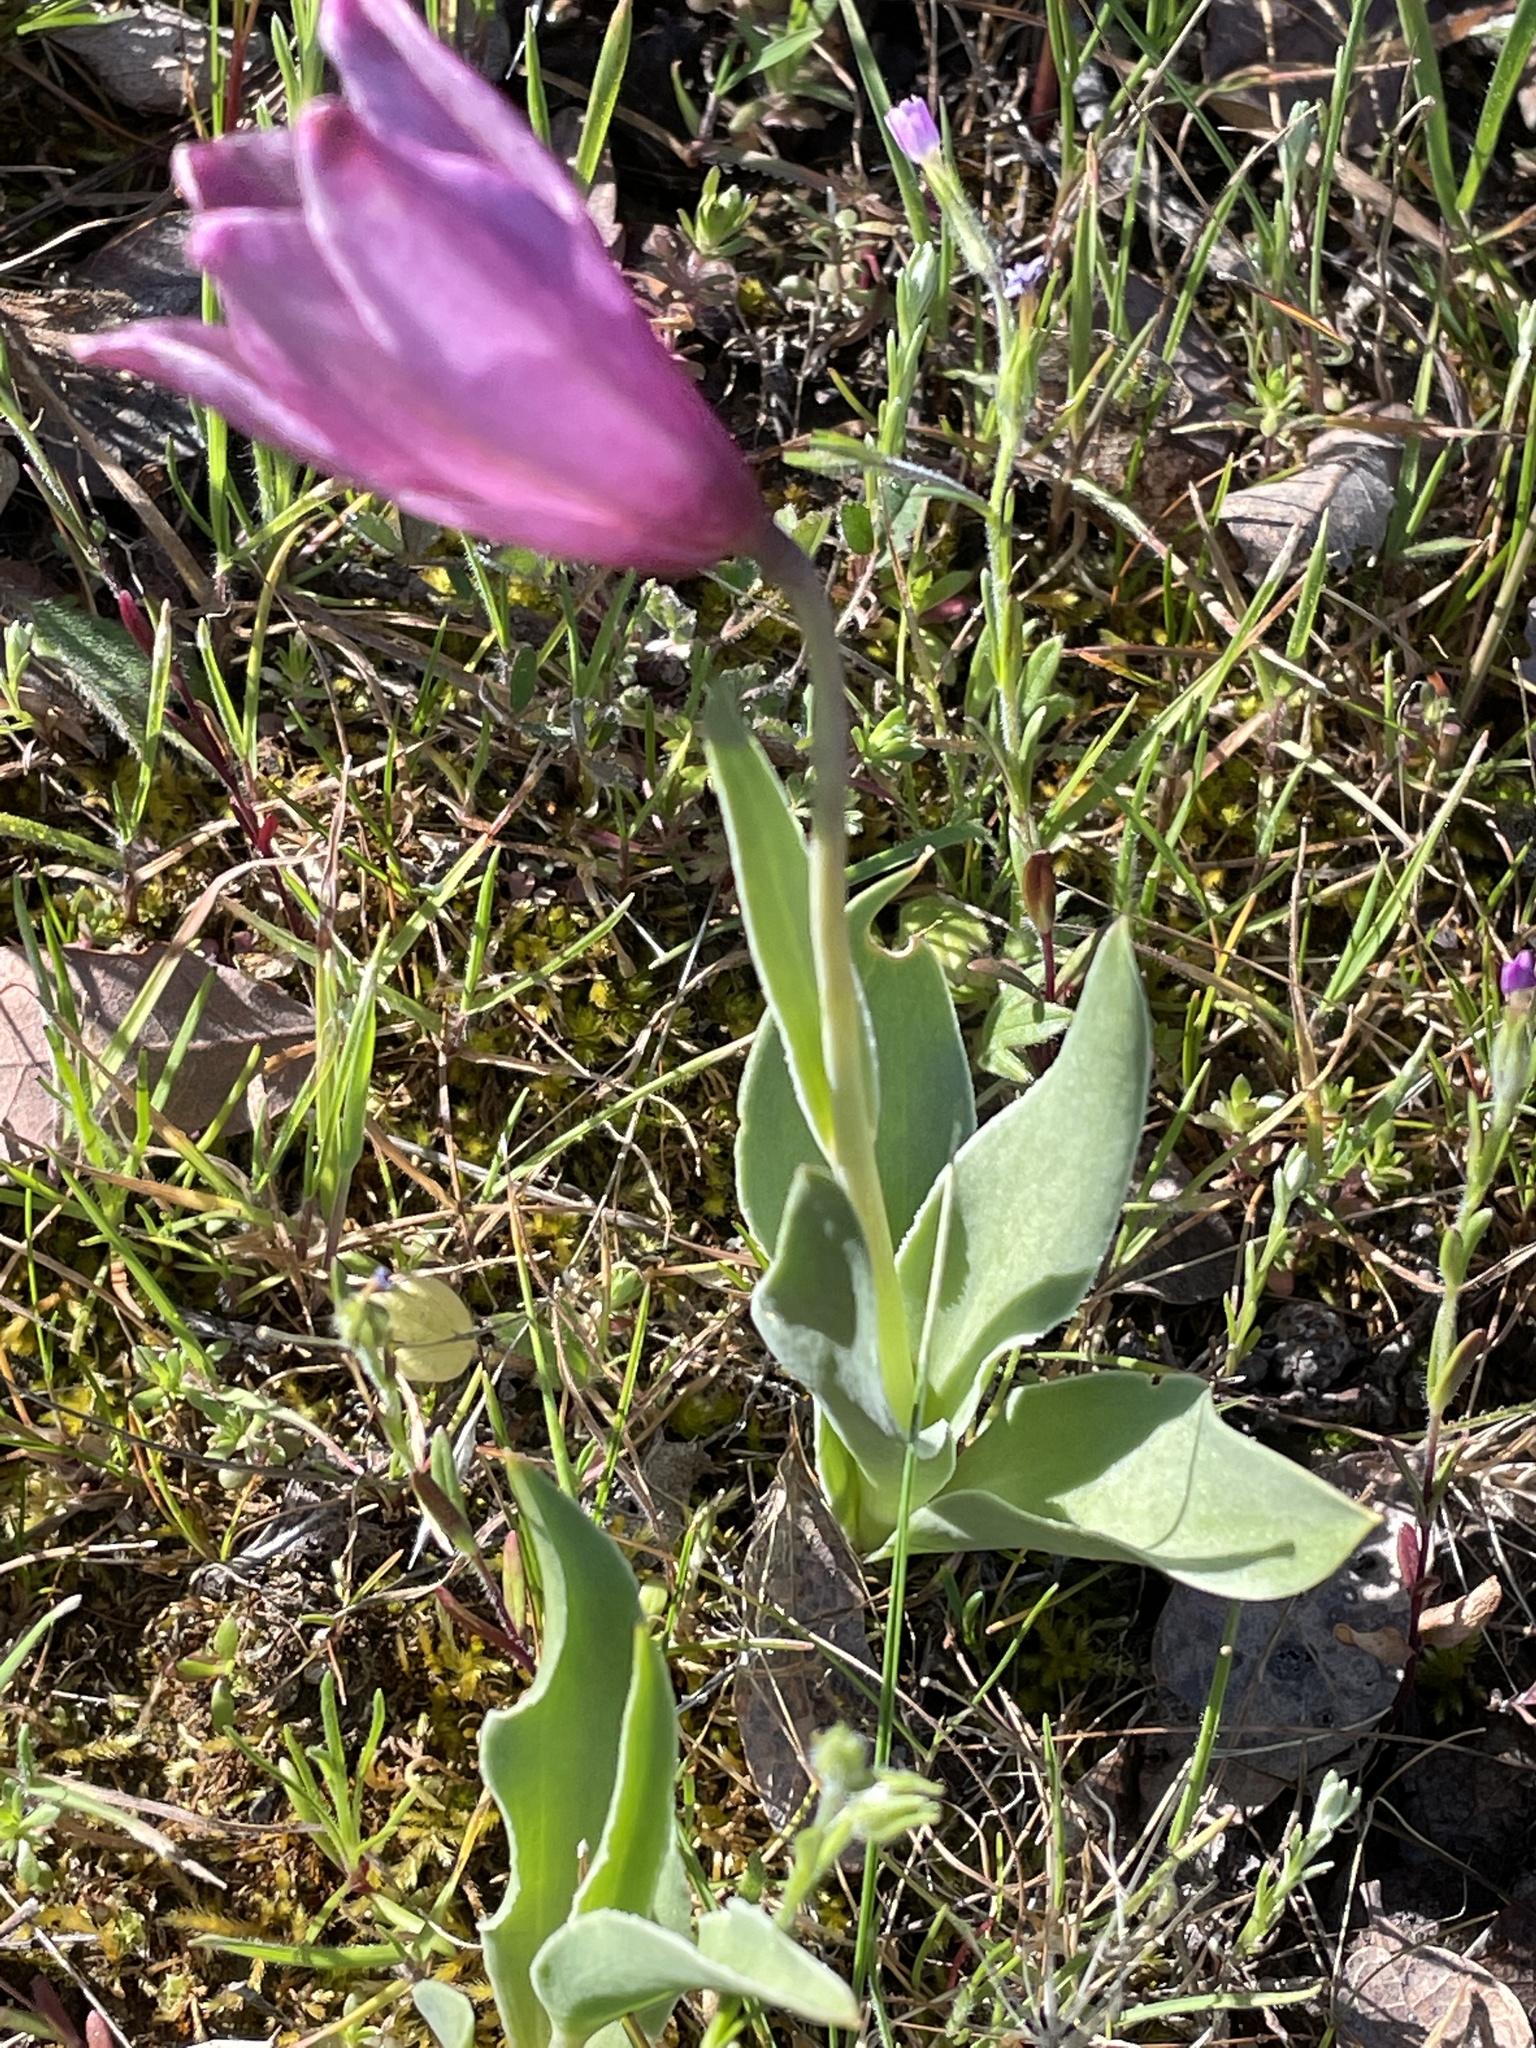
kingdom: Plantae
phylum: Tracheophyta
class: Liliopsida
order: Liliales
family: Liliaceae
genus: Fritillaria
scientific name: Fritillaria pluriflora
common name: Adobe-lily
